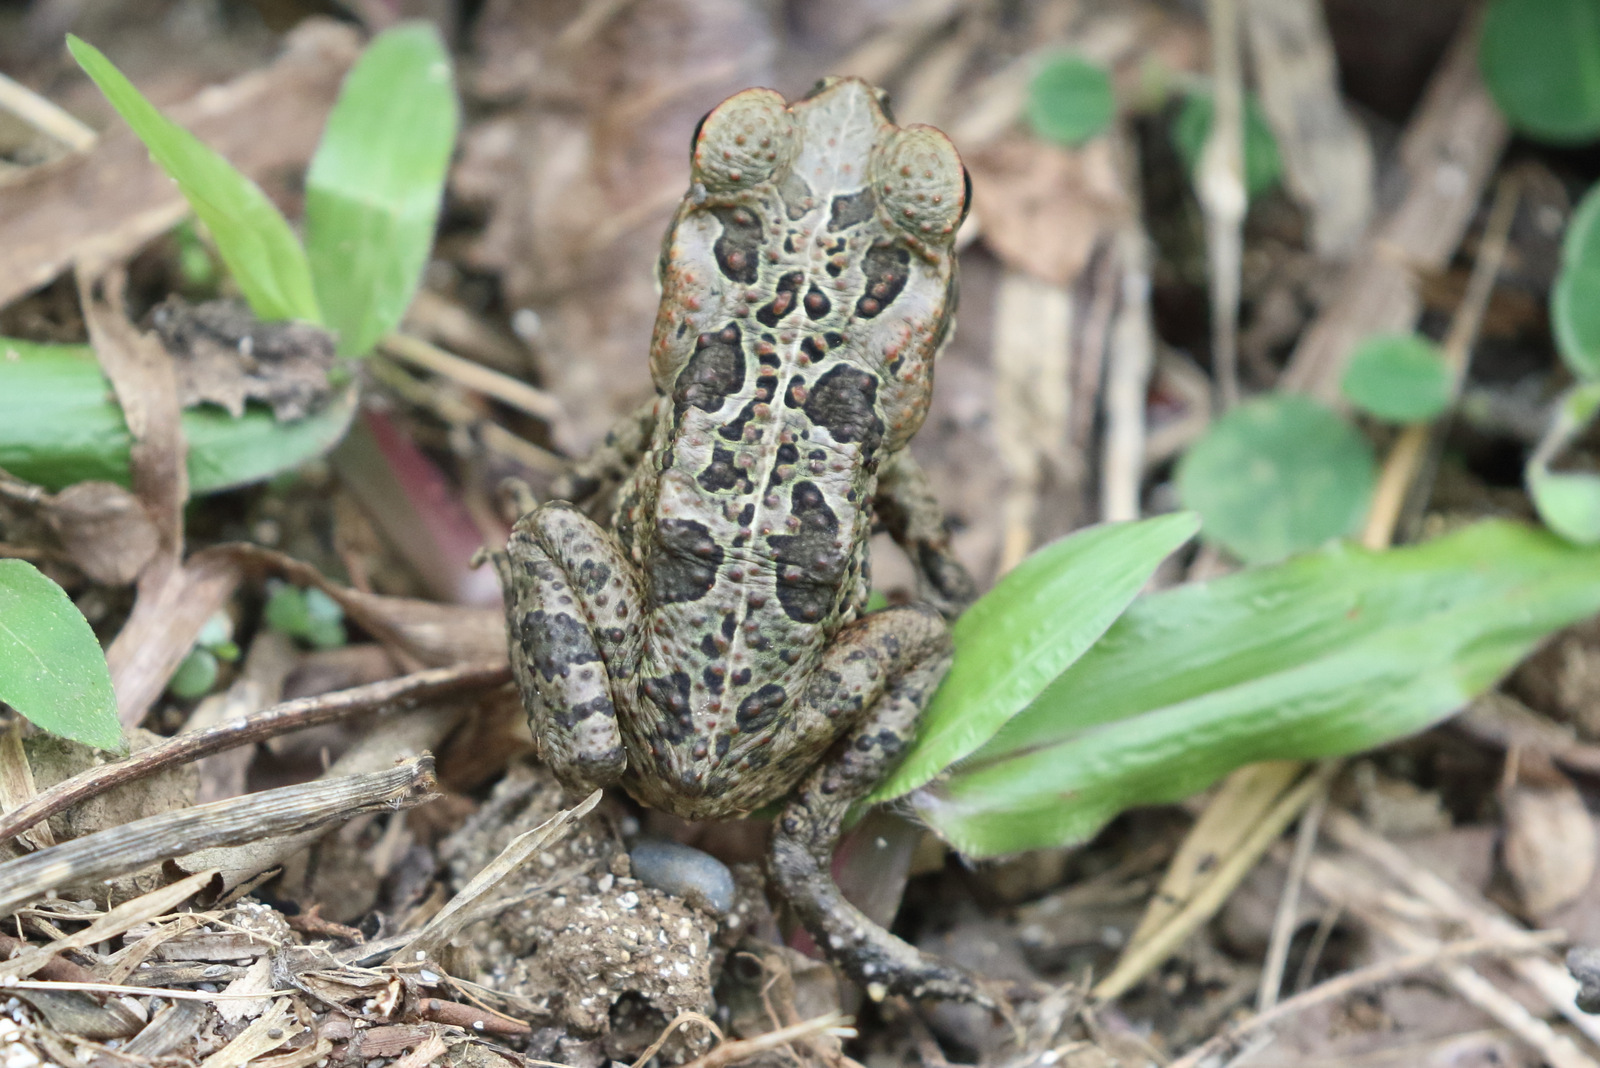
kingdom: Animalia
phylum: Chordata
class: Amphibia
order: Anura
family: Bufonidae
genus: Rhinella
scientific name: Rhinella marina
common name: Cane toad
